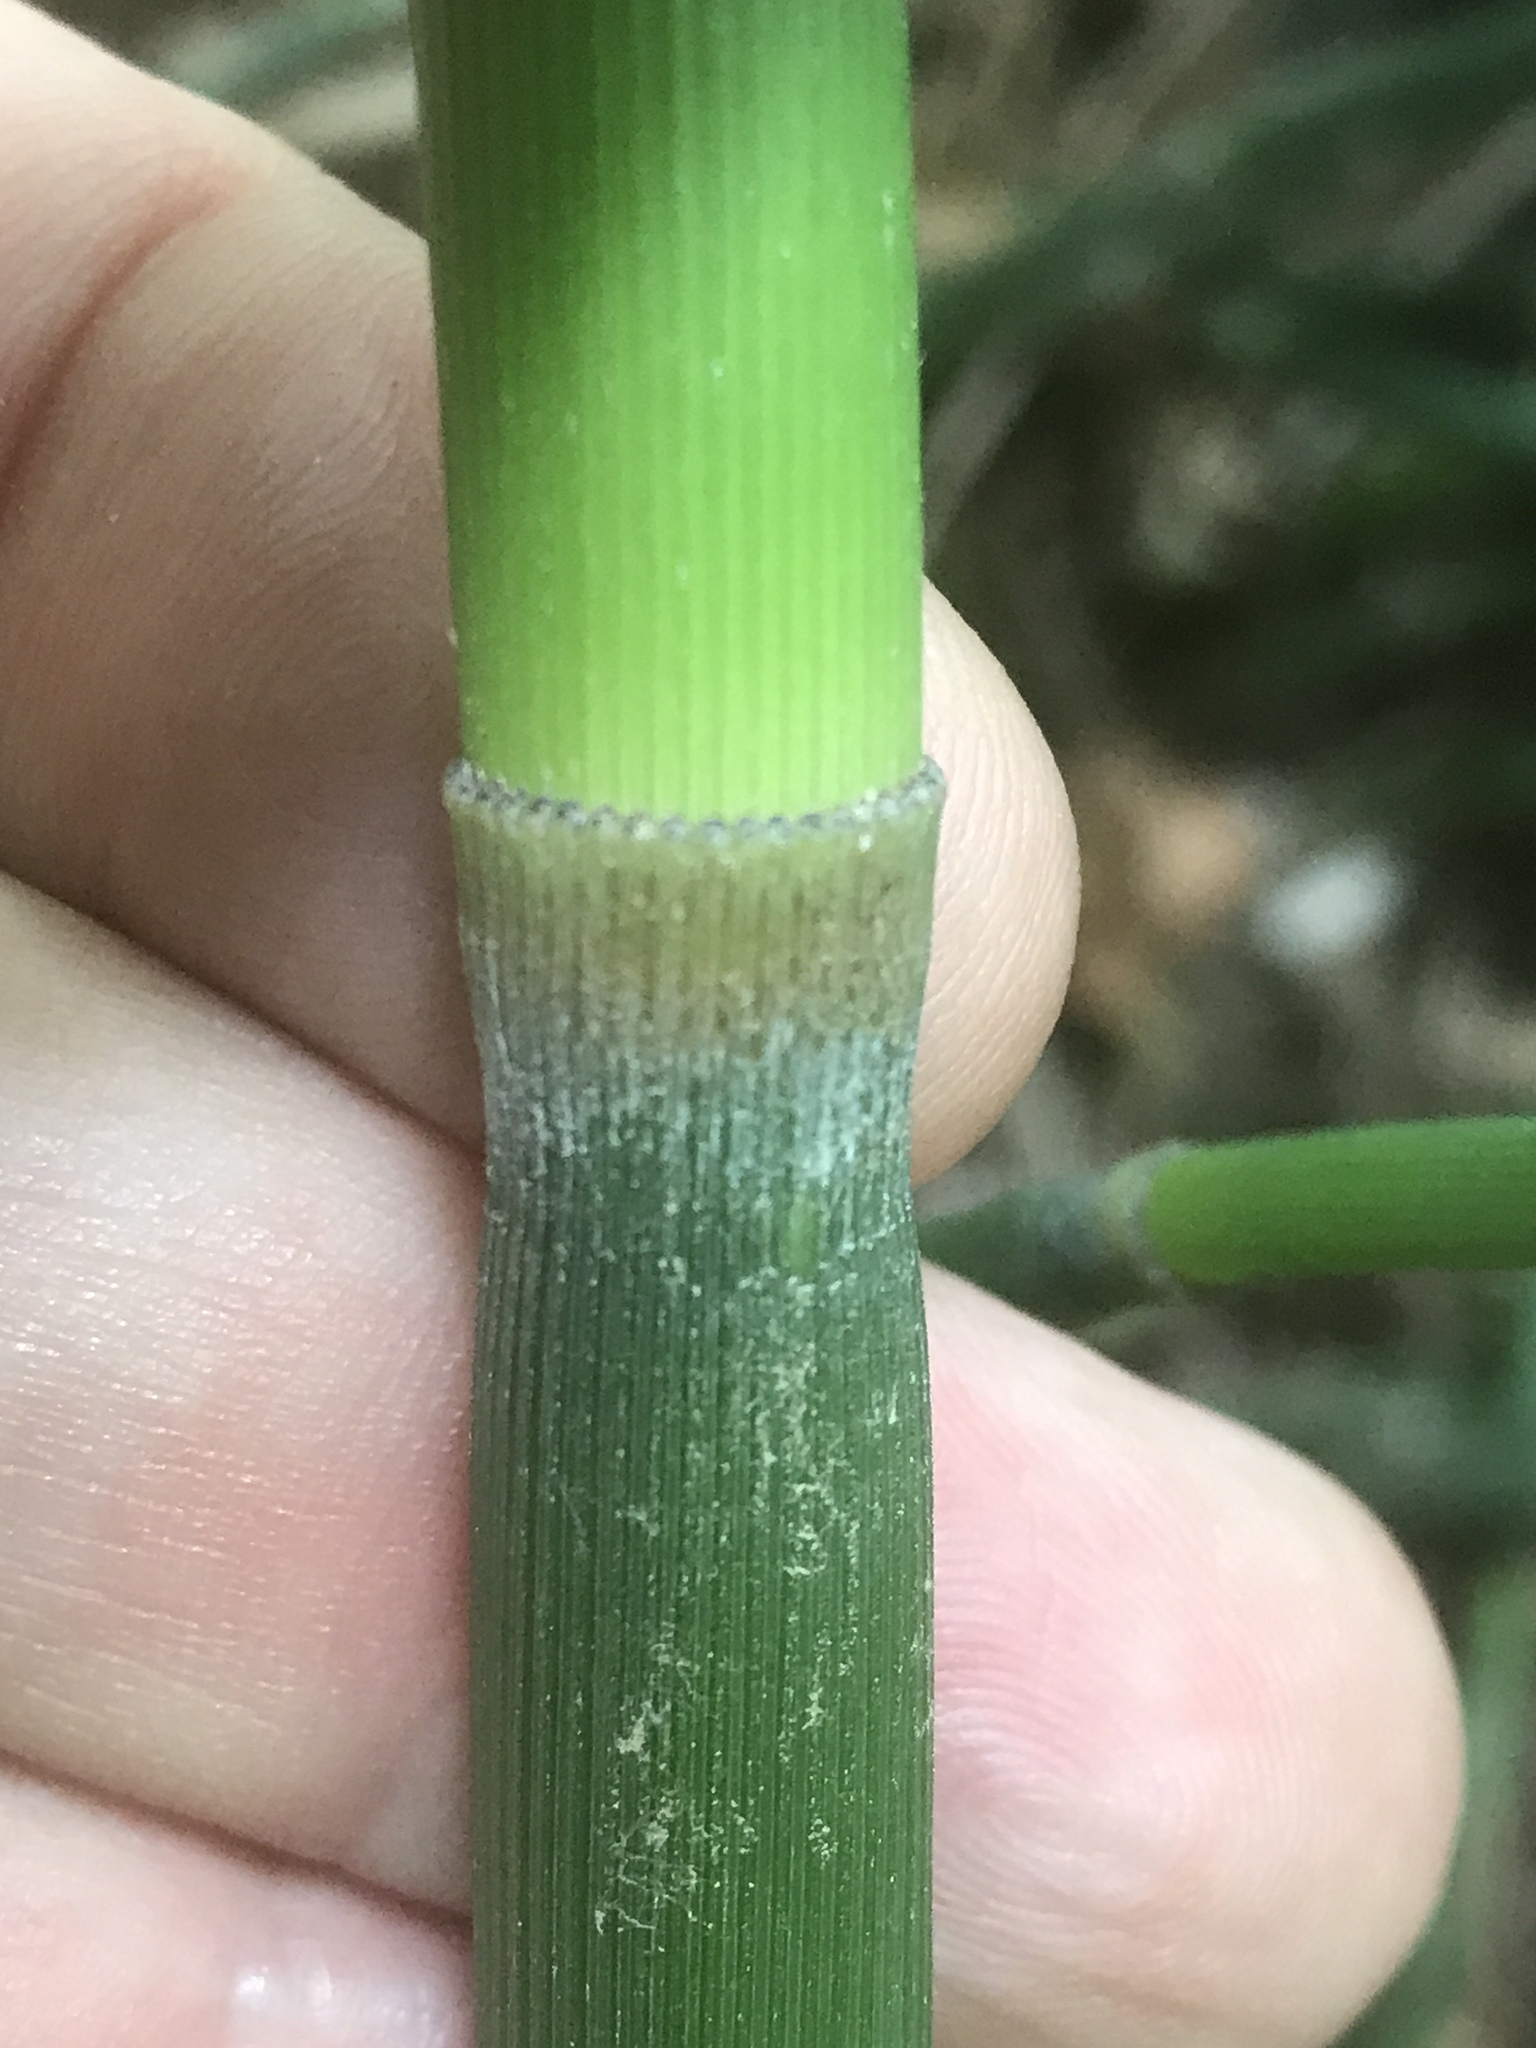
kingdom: Plantae
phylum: Tracheophyta
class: Polypodiopsida
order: Equisetales
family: Equisetaceae
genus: Equisetum
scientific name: Equisetum praealtum
